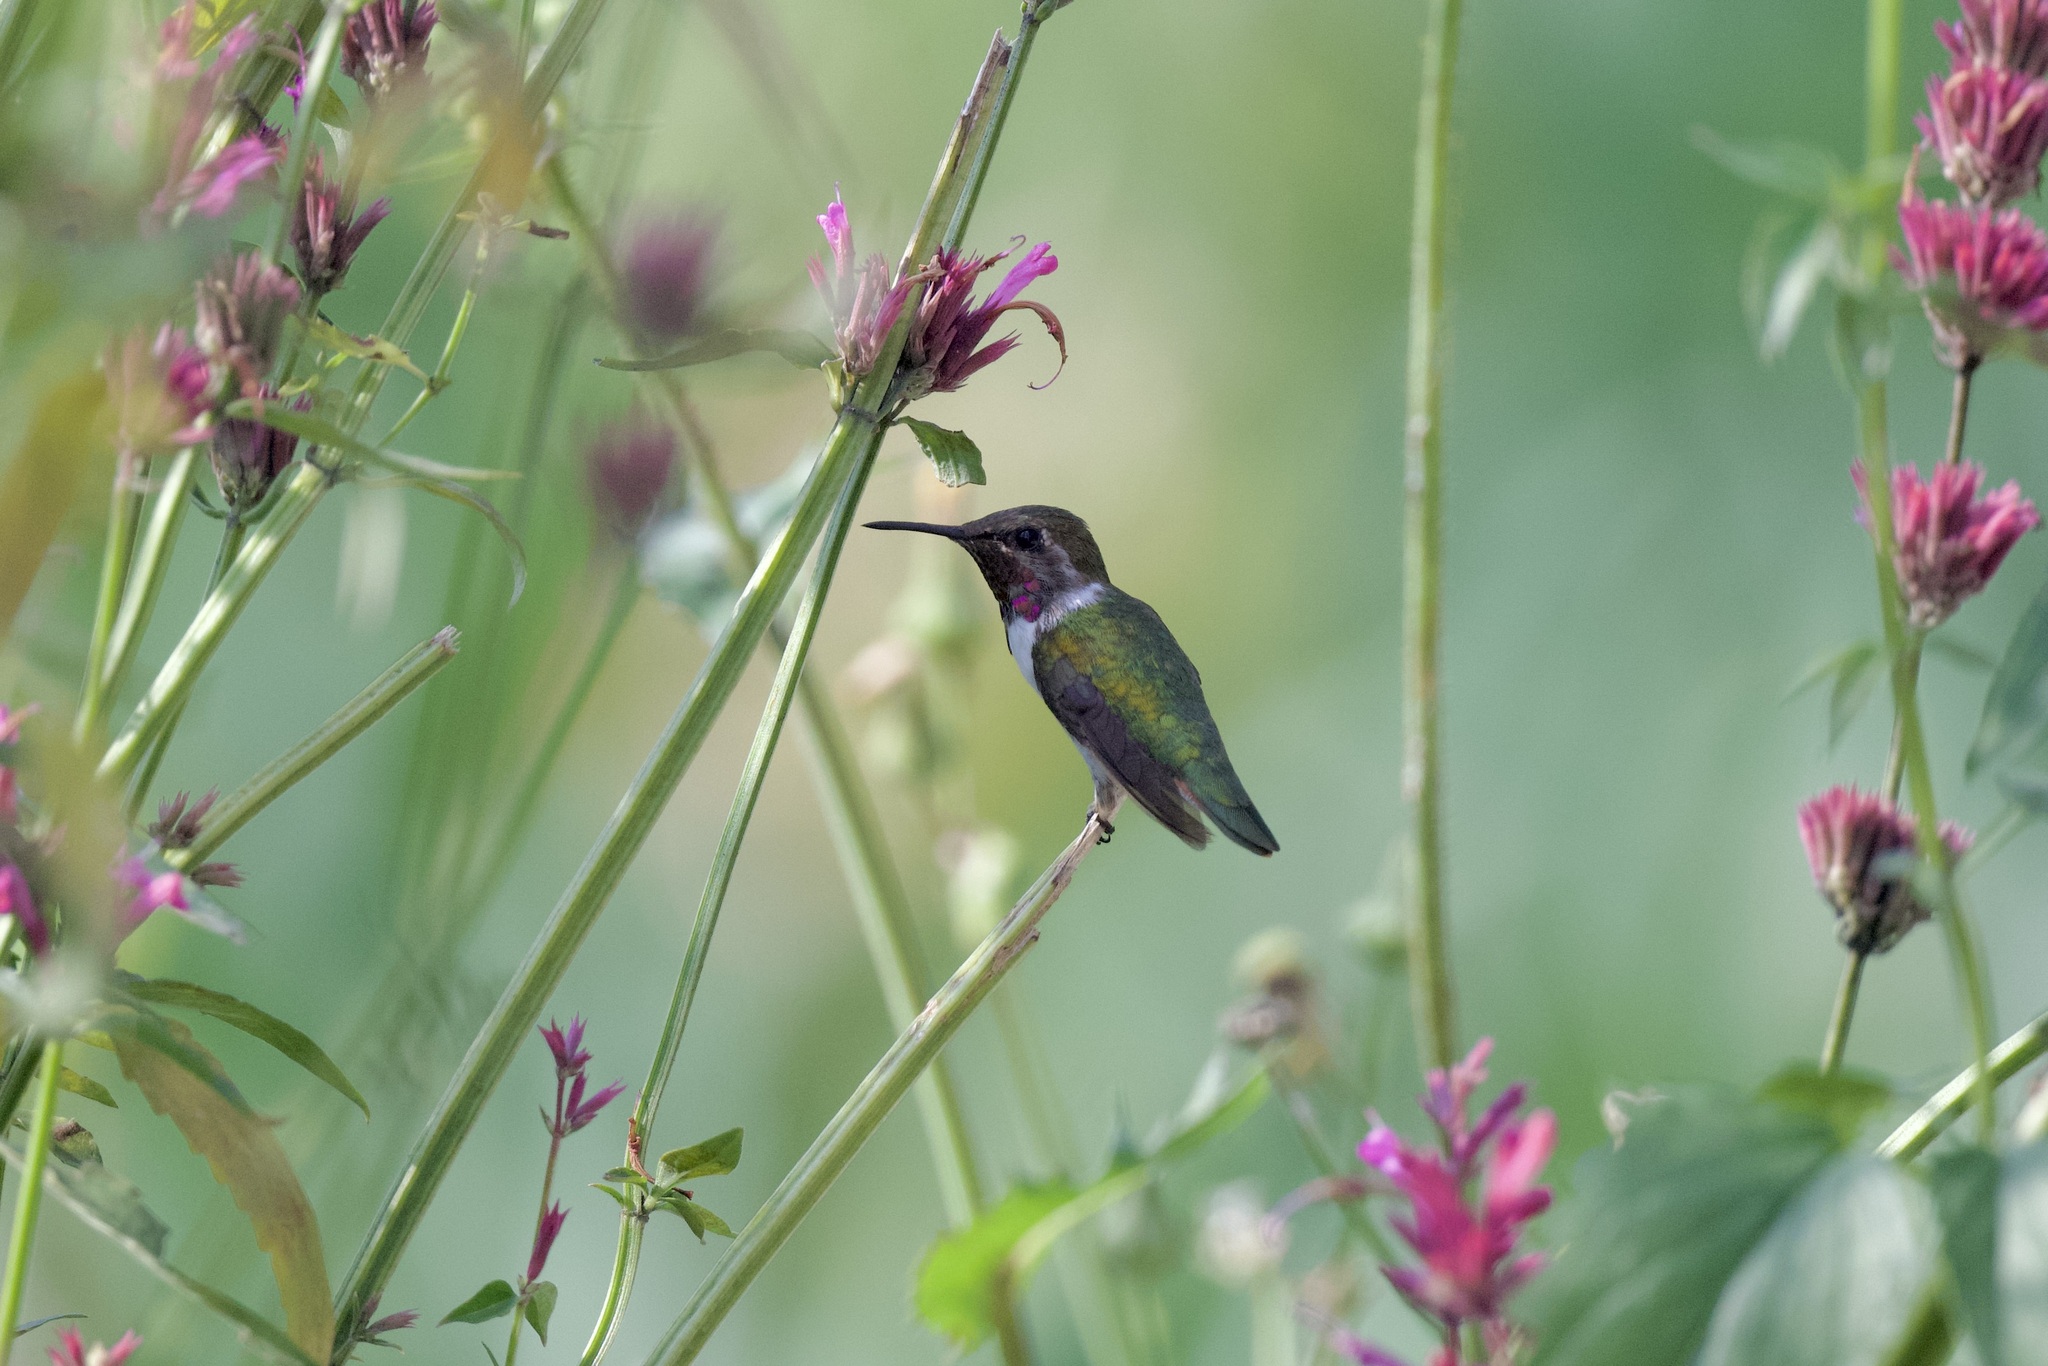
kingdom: Animalia
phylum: Chordata
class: Aves
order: Apodiformes
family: Trochilidae
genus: Selasphorus
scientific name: Selasphorus heloisa
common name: Bumblebee hummingbird
